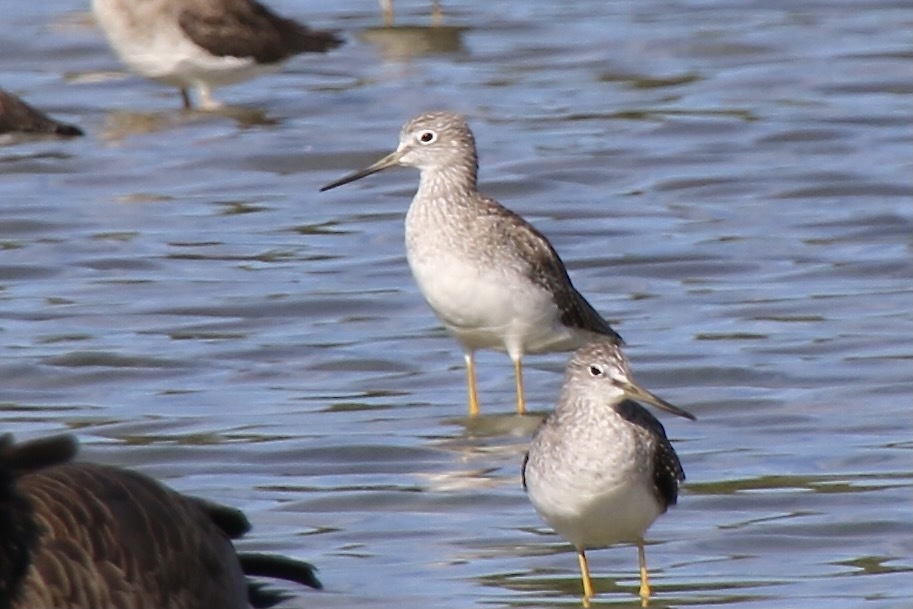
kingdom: Animalia
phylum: Chordata
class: Aves
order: Charadriiformes
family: Scolopacidae
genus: Tringa
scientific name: Tringa melanoleuca
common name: Greater yellowlegs
